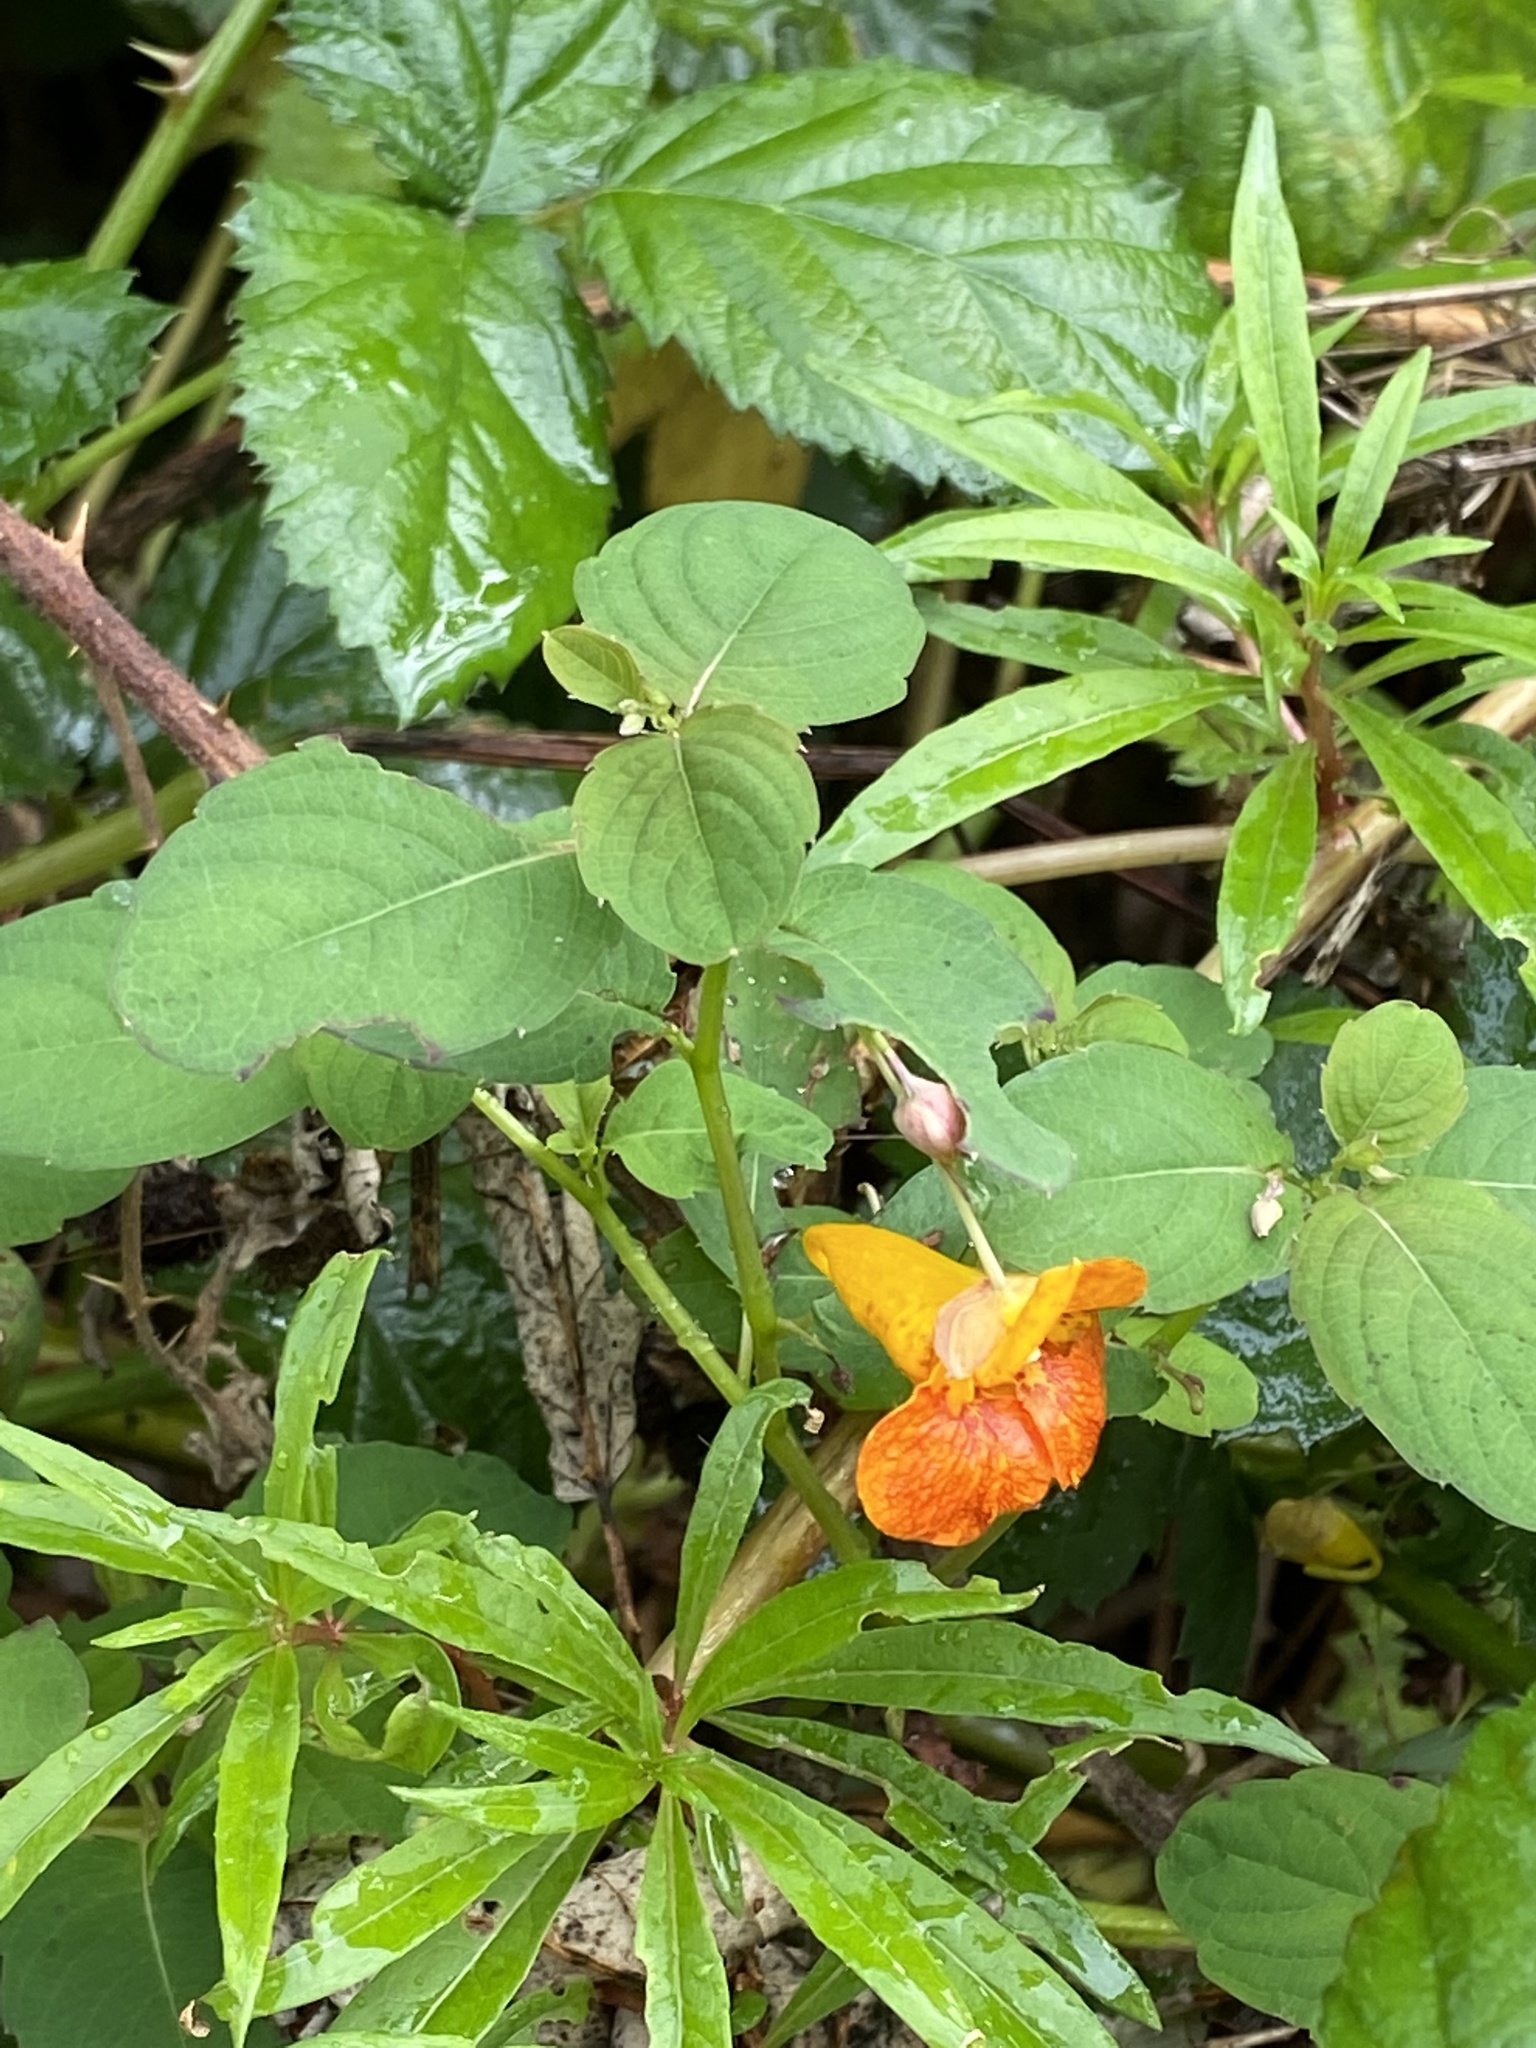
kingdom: Plantae
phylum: Tracheophyta
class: Magnoliopsida
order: Ericales
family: Balsaminaceae
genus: Impatiens
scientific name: Impatiens capensis
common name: Orange balsam
